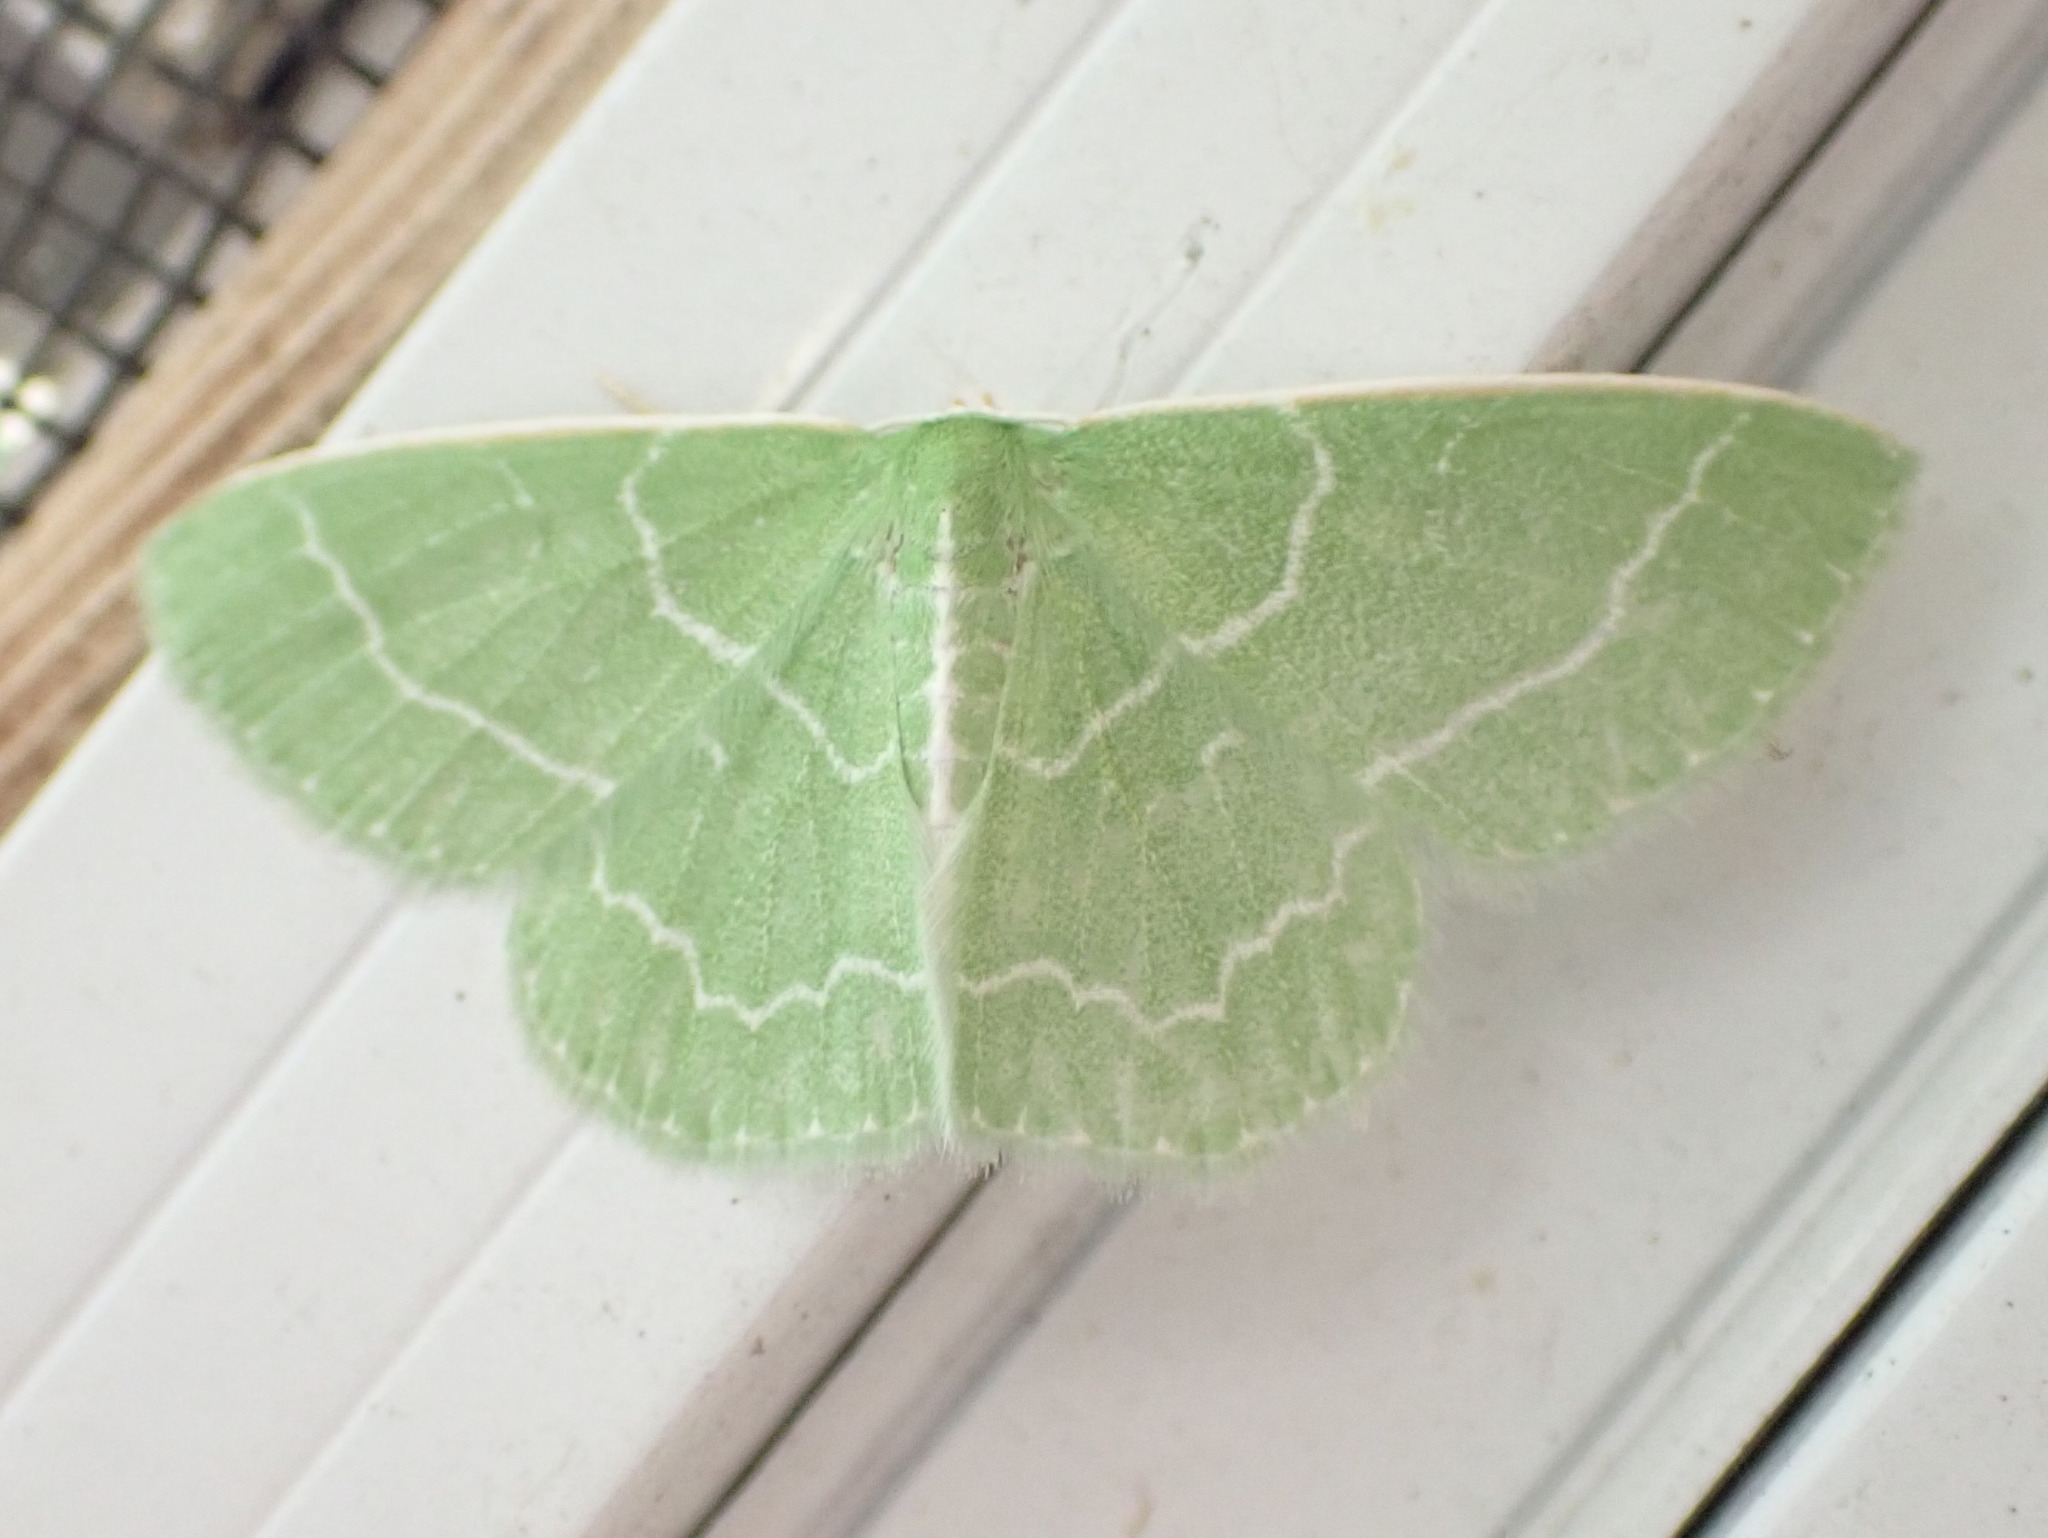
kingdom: Animalia
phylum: Arthropoda
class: Insecta
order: Lepidoptera
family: Geometridae
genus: Synchlora
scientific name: Synchlora aerata
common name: Wavy-lined emerald
